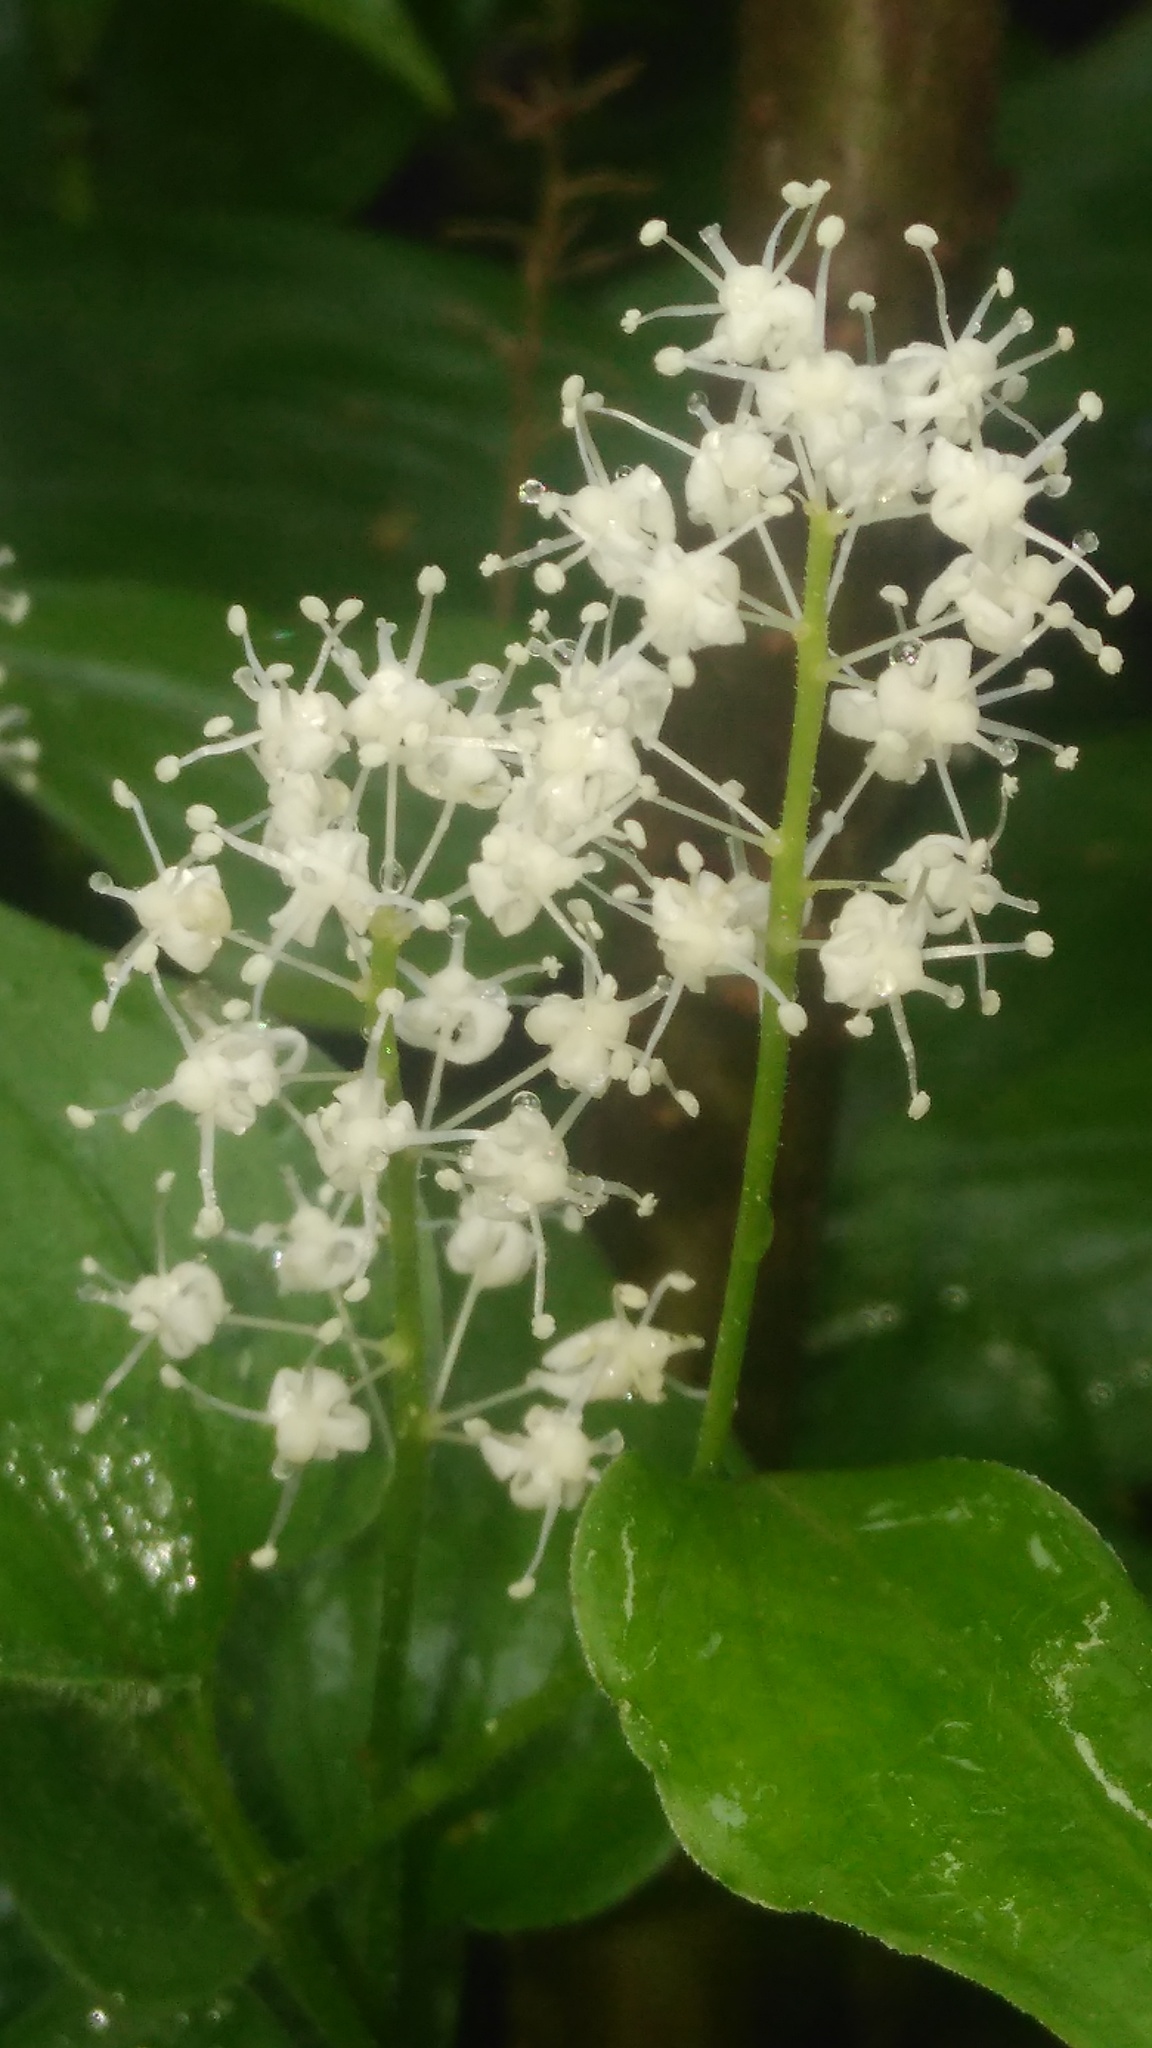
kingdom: Plantae
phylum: Tracheophyta
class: Liliopsida
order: Asparagales
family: Asparagaceae
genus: Maianthemum
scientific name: Maianthemum bifolium
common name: May lily
